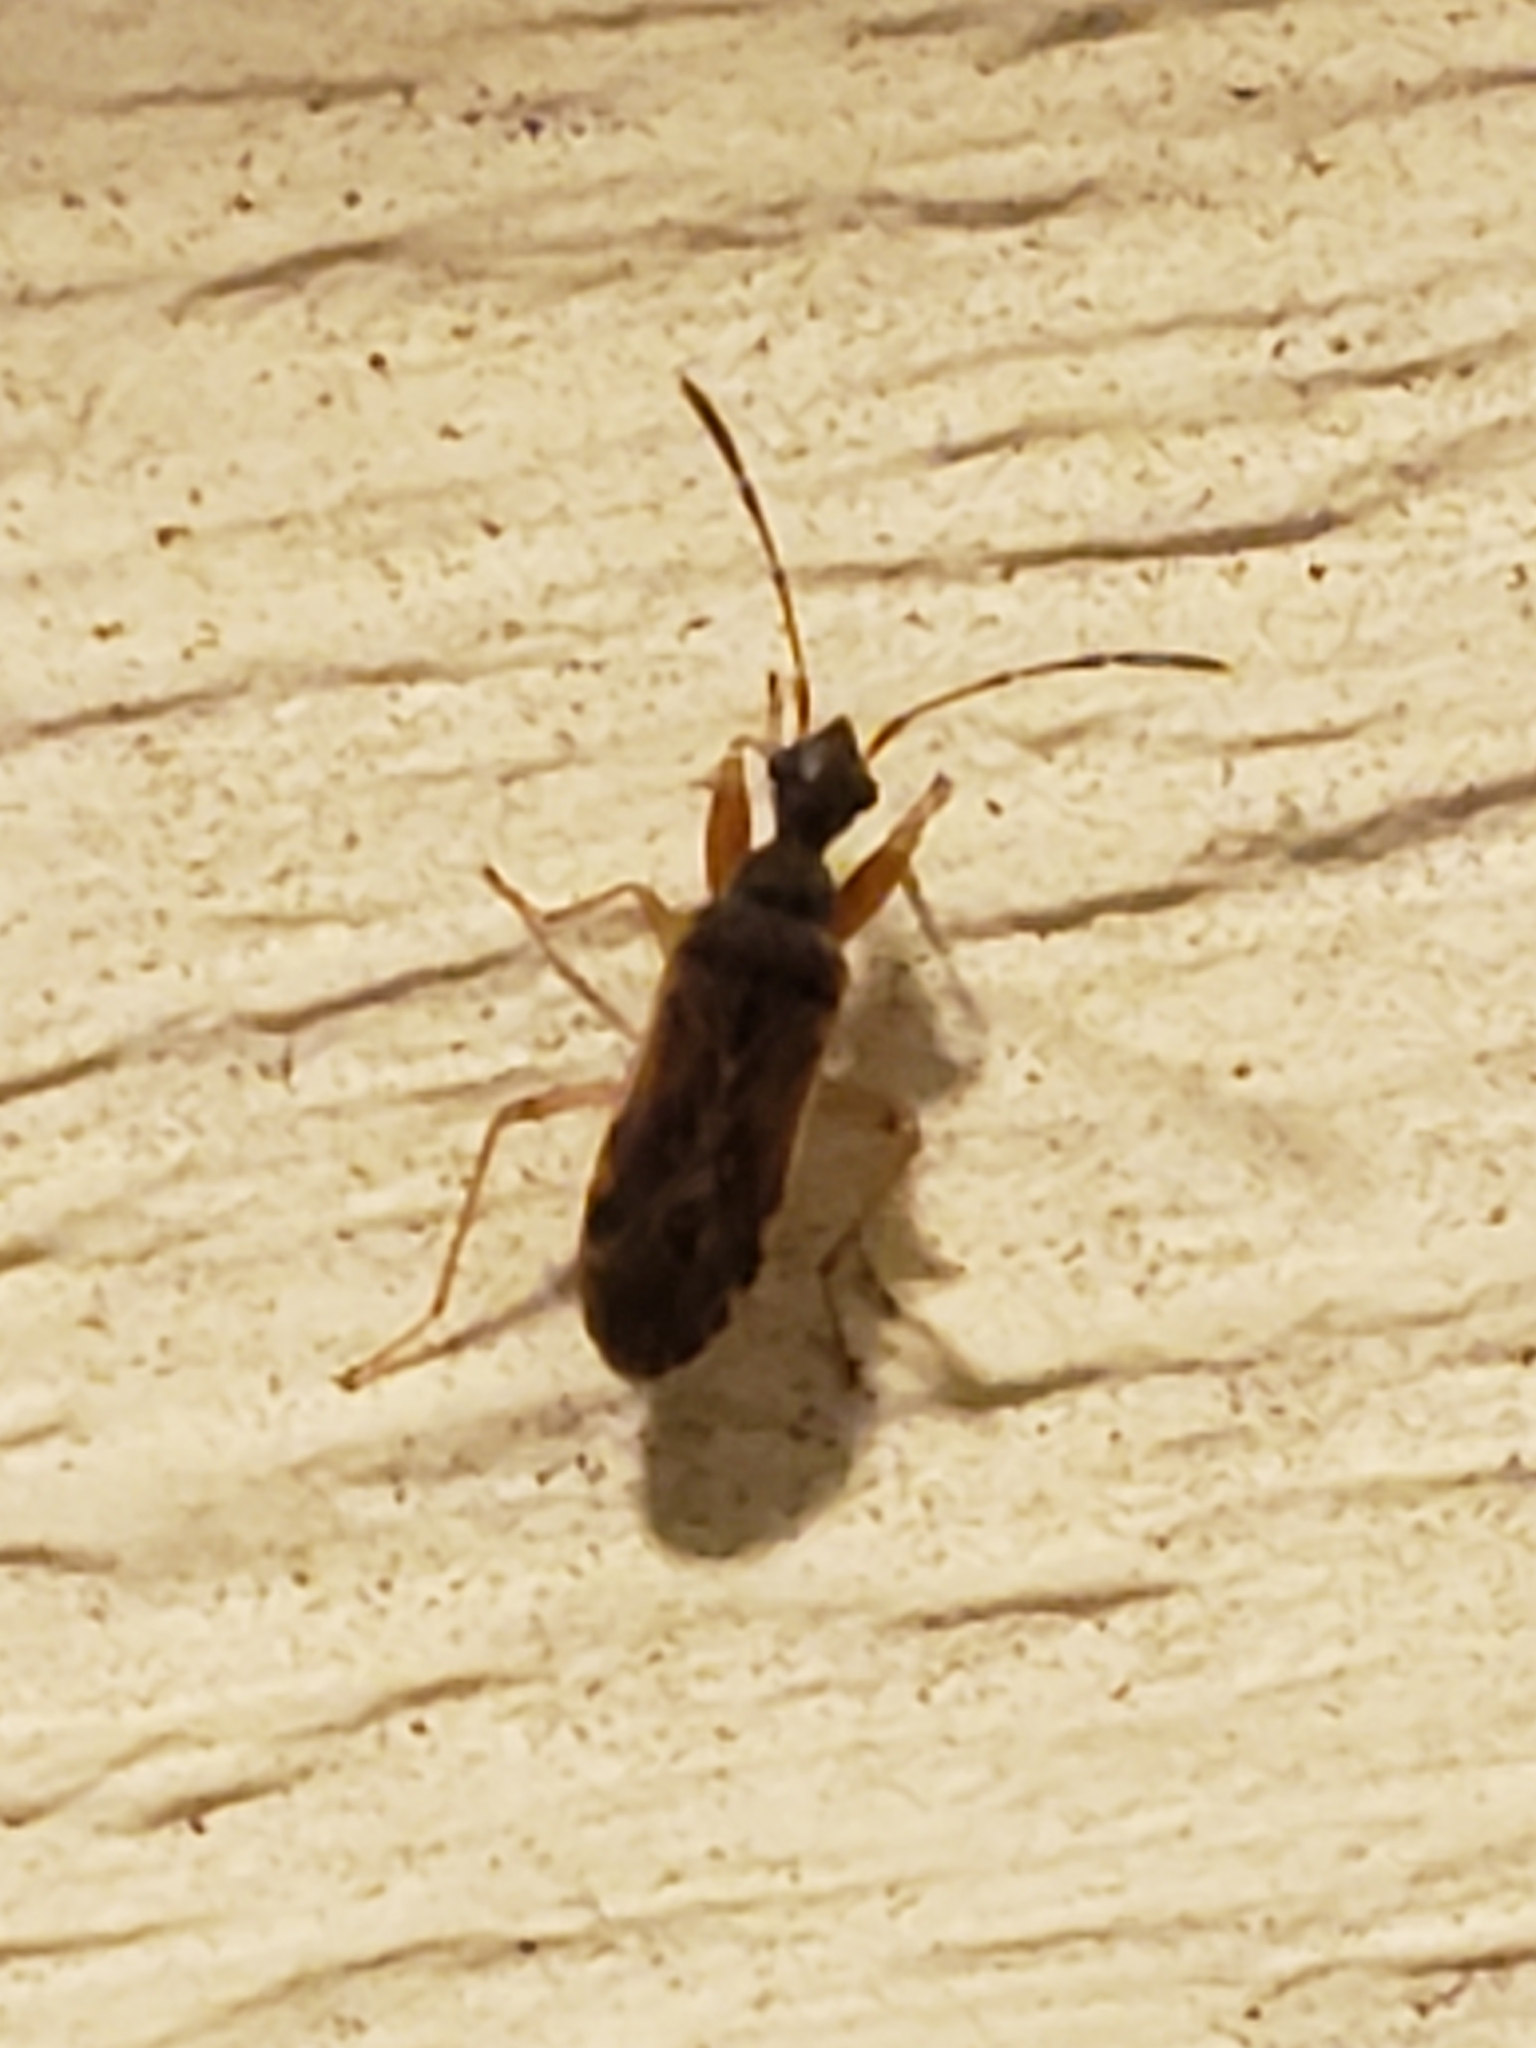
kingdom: Animalia
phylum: Arthropoda
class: Insecta
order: Hemiptera
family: Rhyparochromidae
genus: Heraeus
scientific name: Heraeus plebejus
